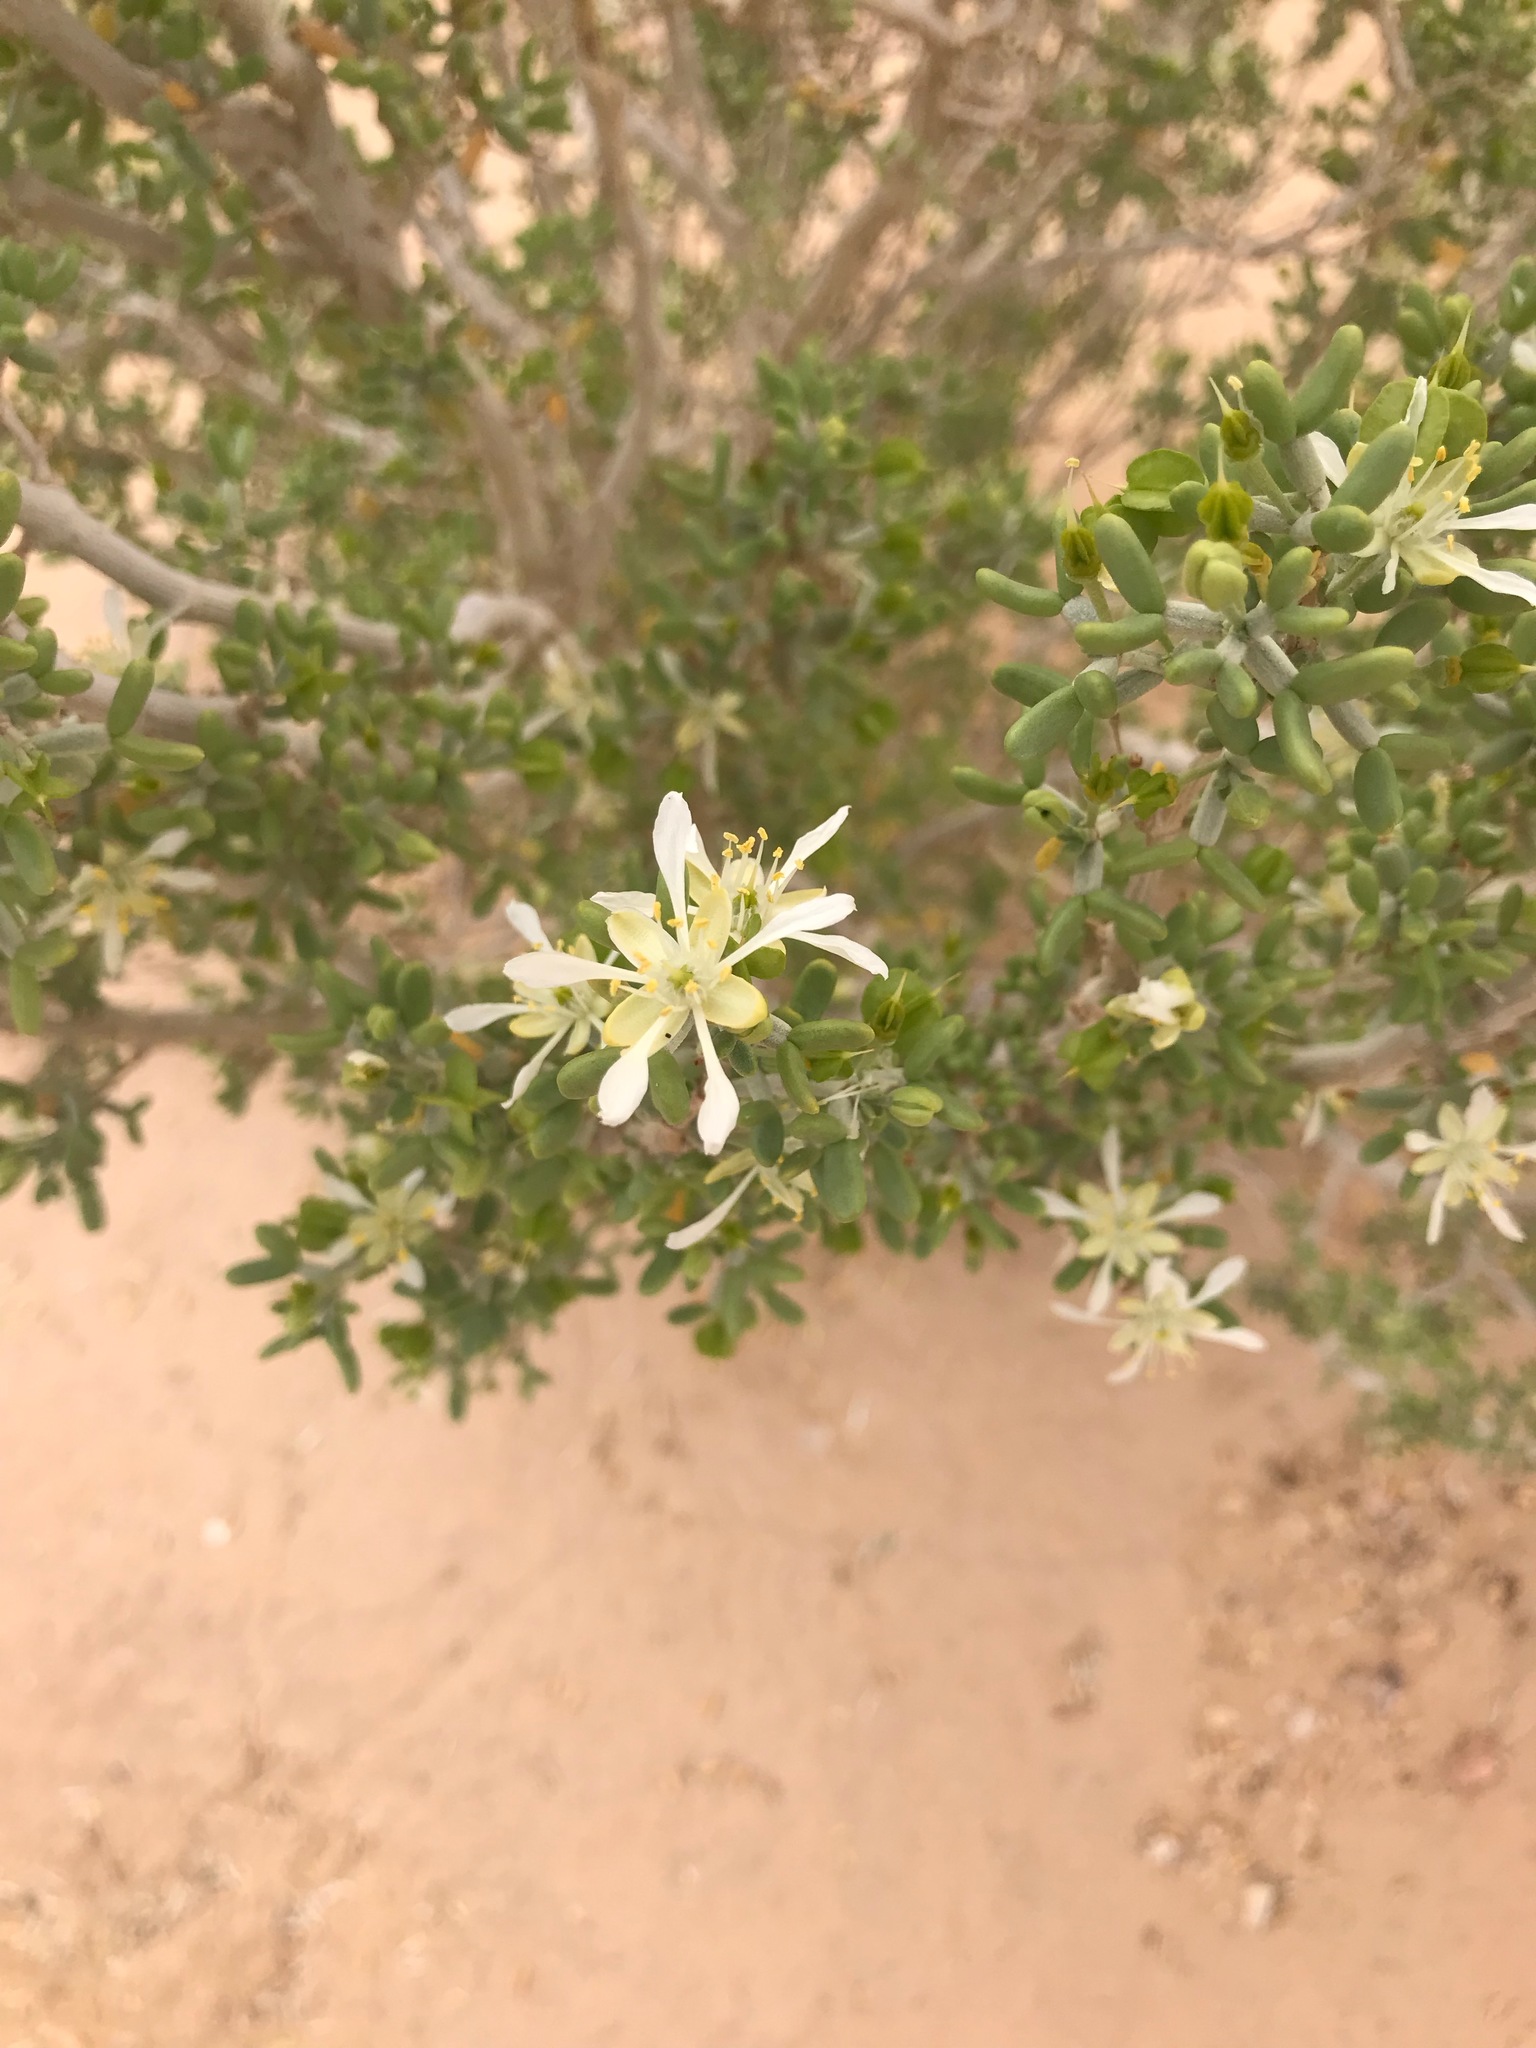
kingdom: Plantae
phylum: Tracheophyta
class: Magnoliopsida
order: Zygophyllales
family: Zygophyllaceae
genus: Tetraena
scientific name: Tetraena dumosa
